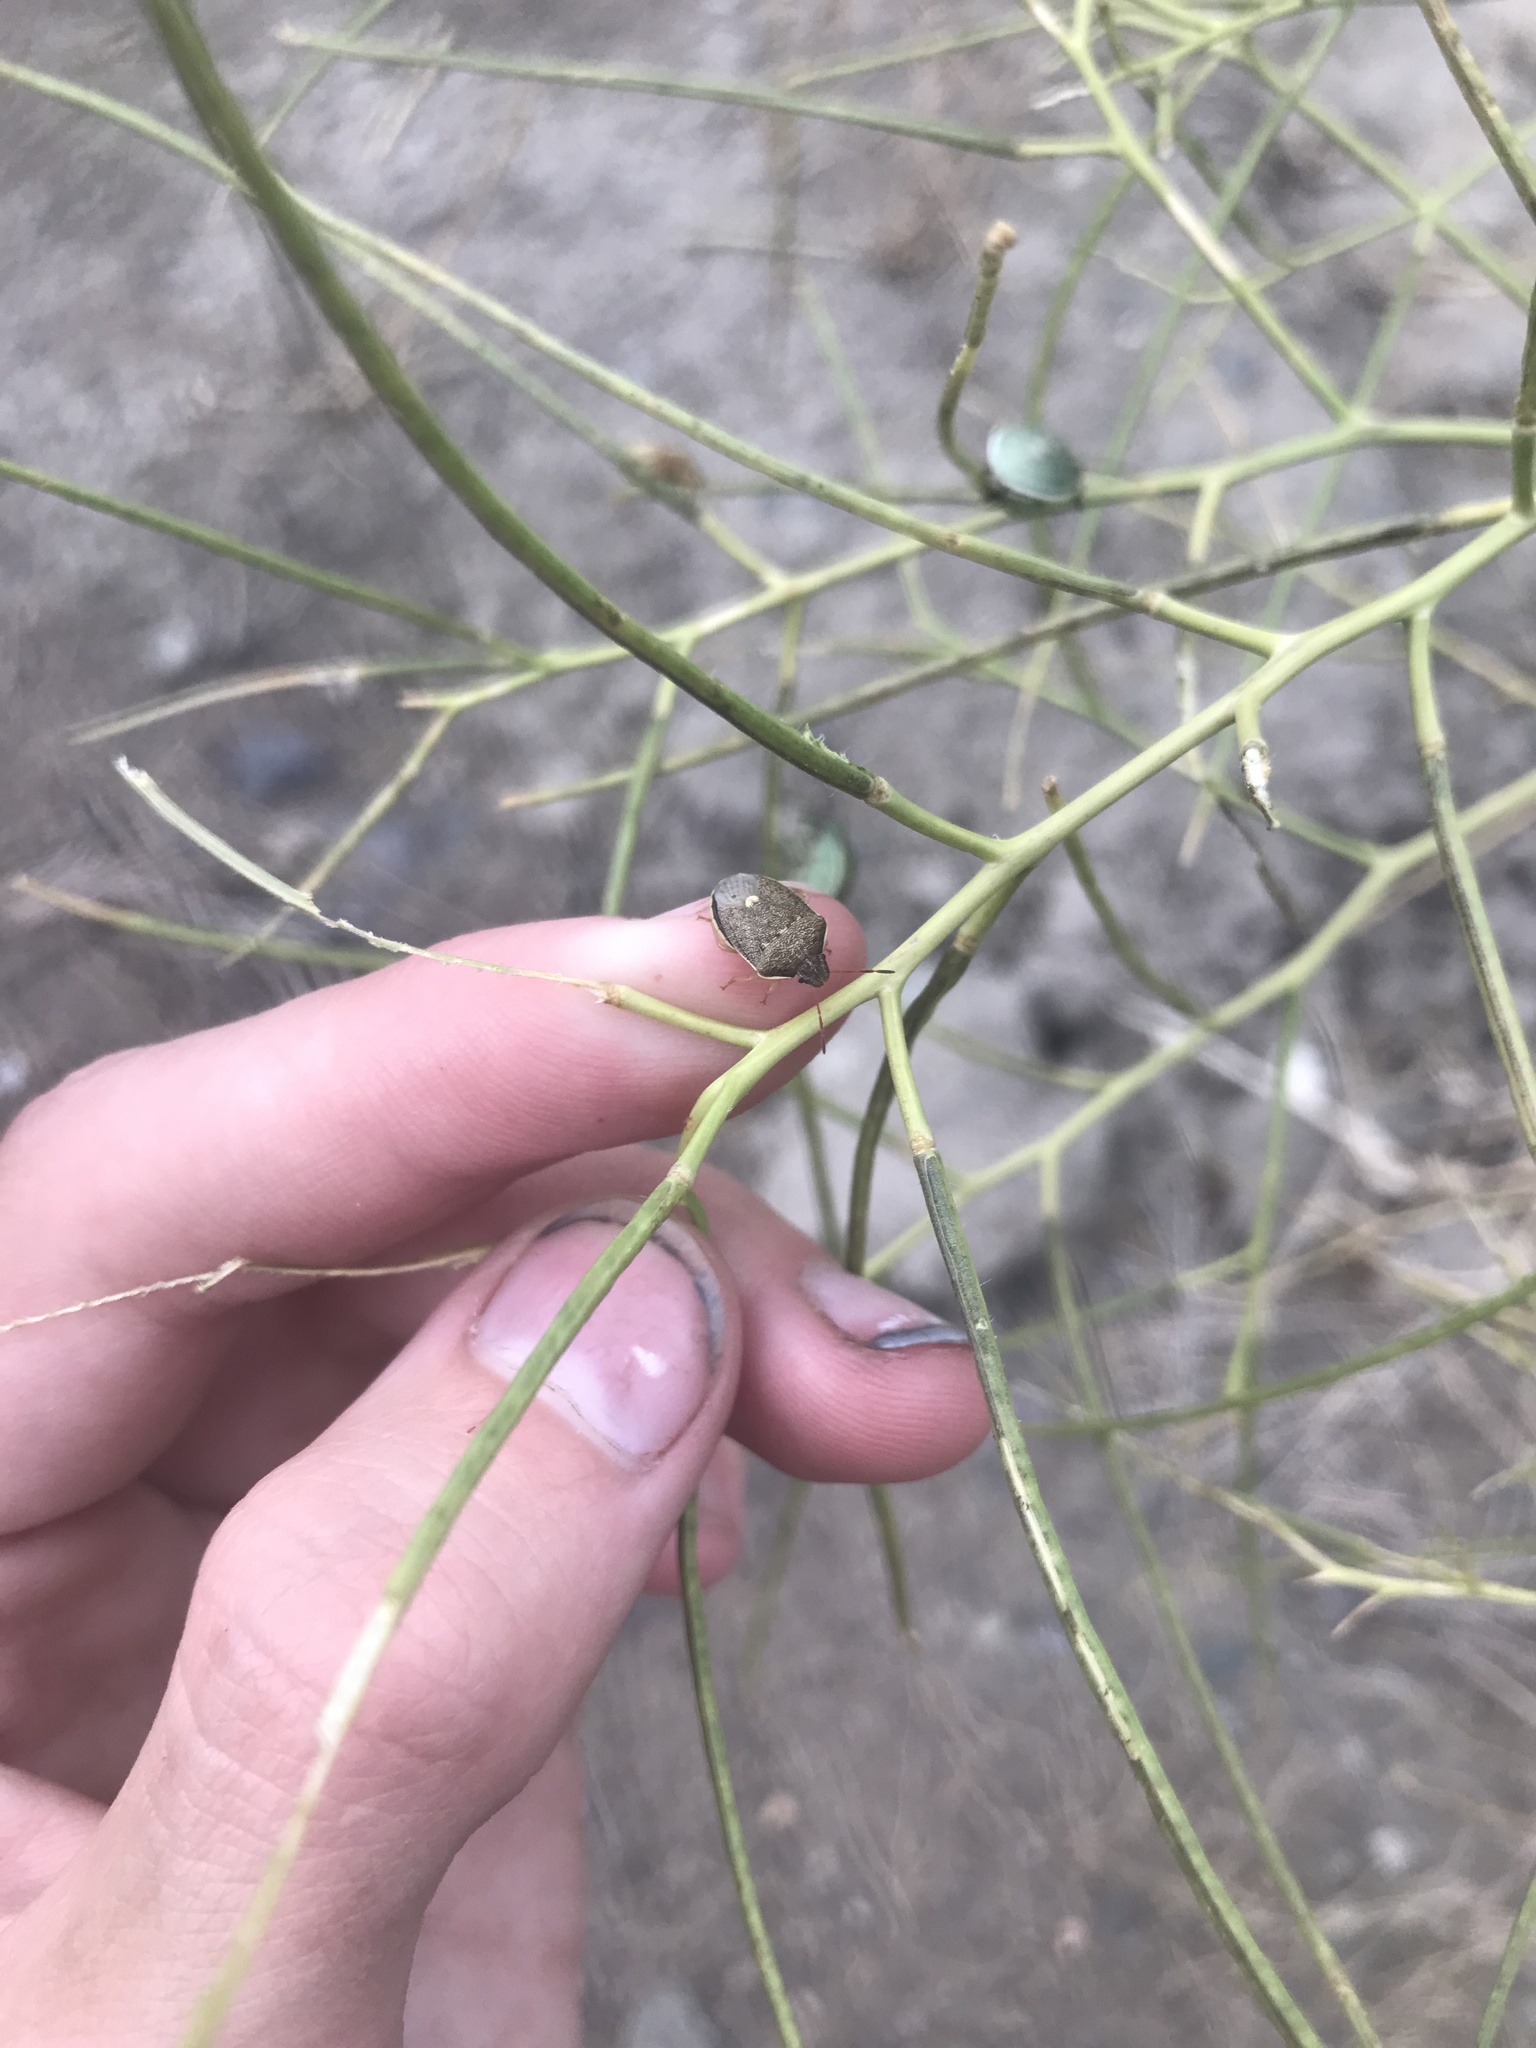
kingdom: Animalia
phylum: Arthropoda
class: Insecta
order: Hemiptera
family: Pentatomidae
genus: Holcostethus
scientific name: Holcostethus limbolarius
